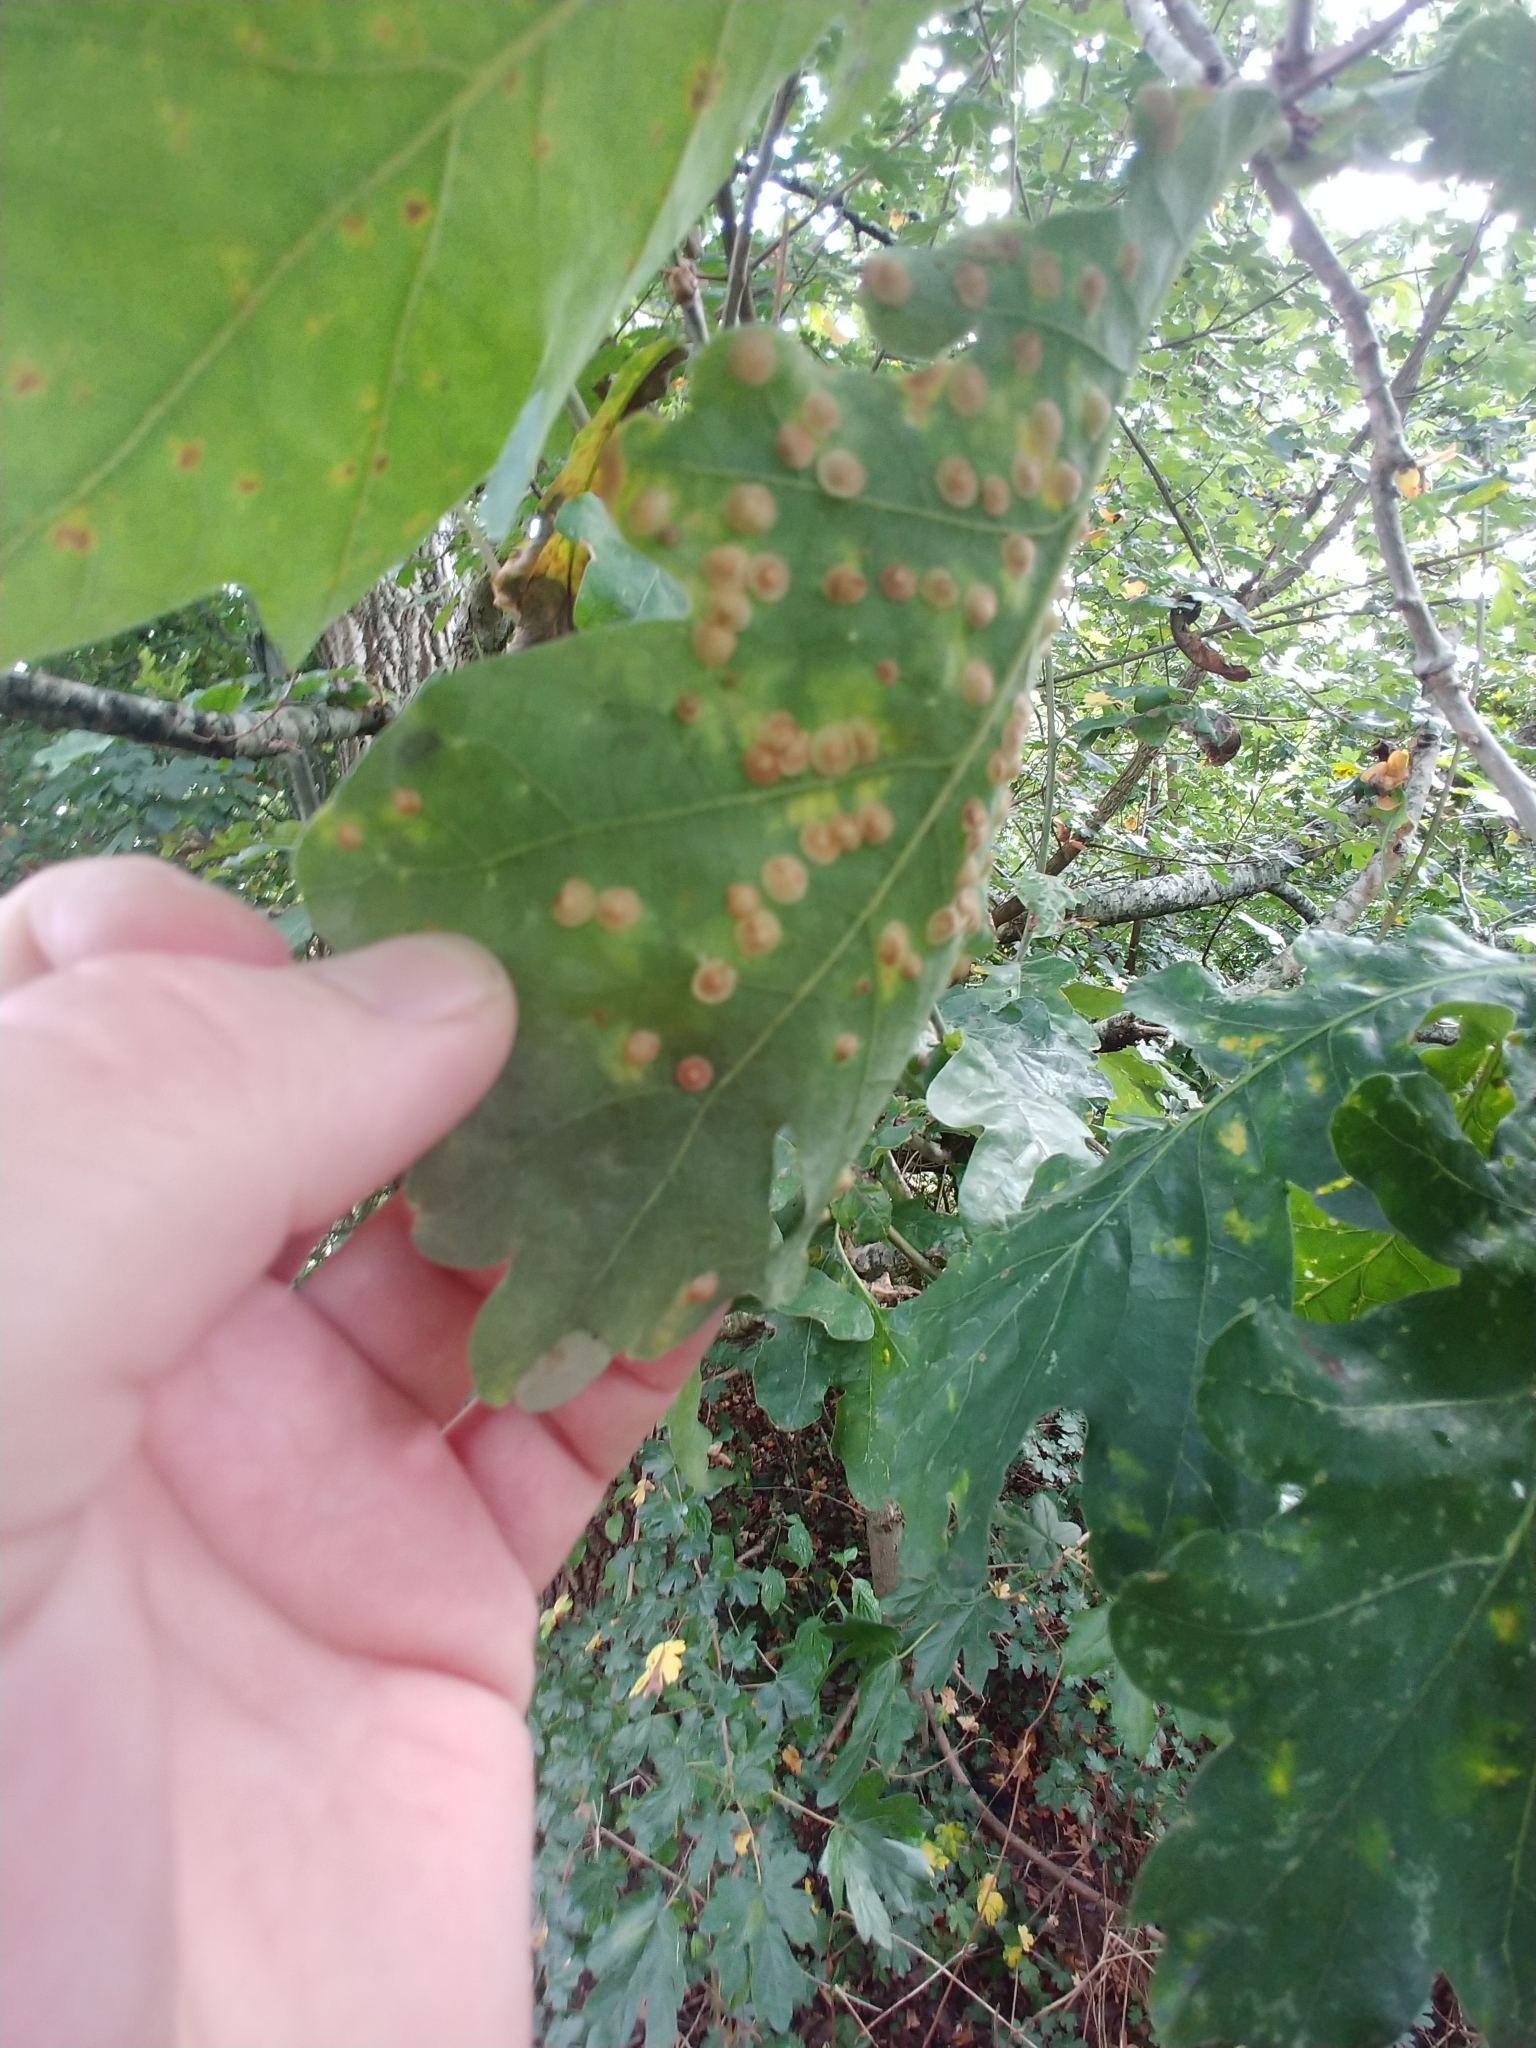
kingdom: Animalia
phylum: Arthropoda
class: Insecta
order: Hymenoptera
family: Cynipidae
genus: Neuroterus
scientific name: Neuroterus quercusbaccarum
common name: Common spangle gall
